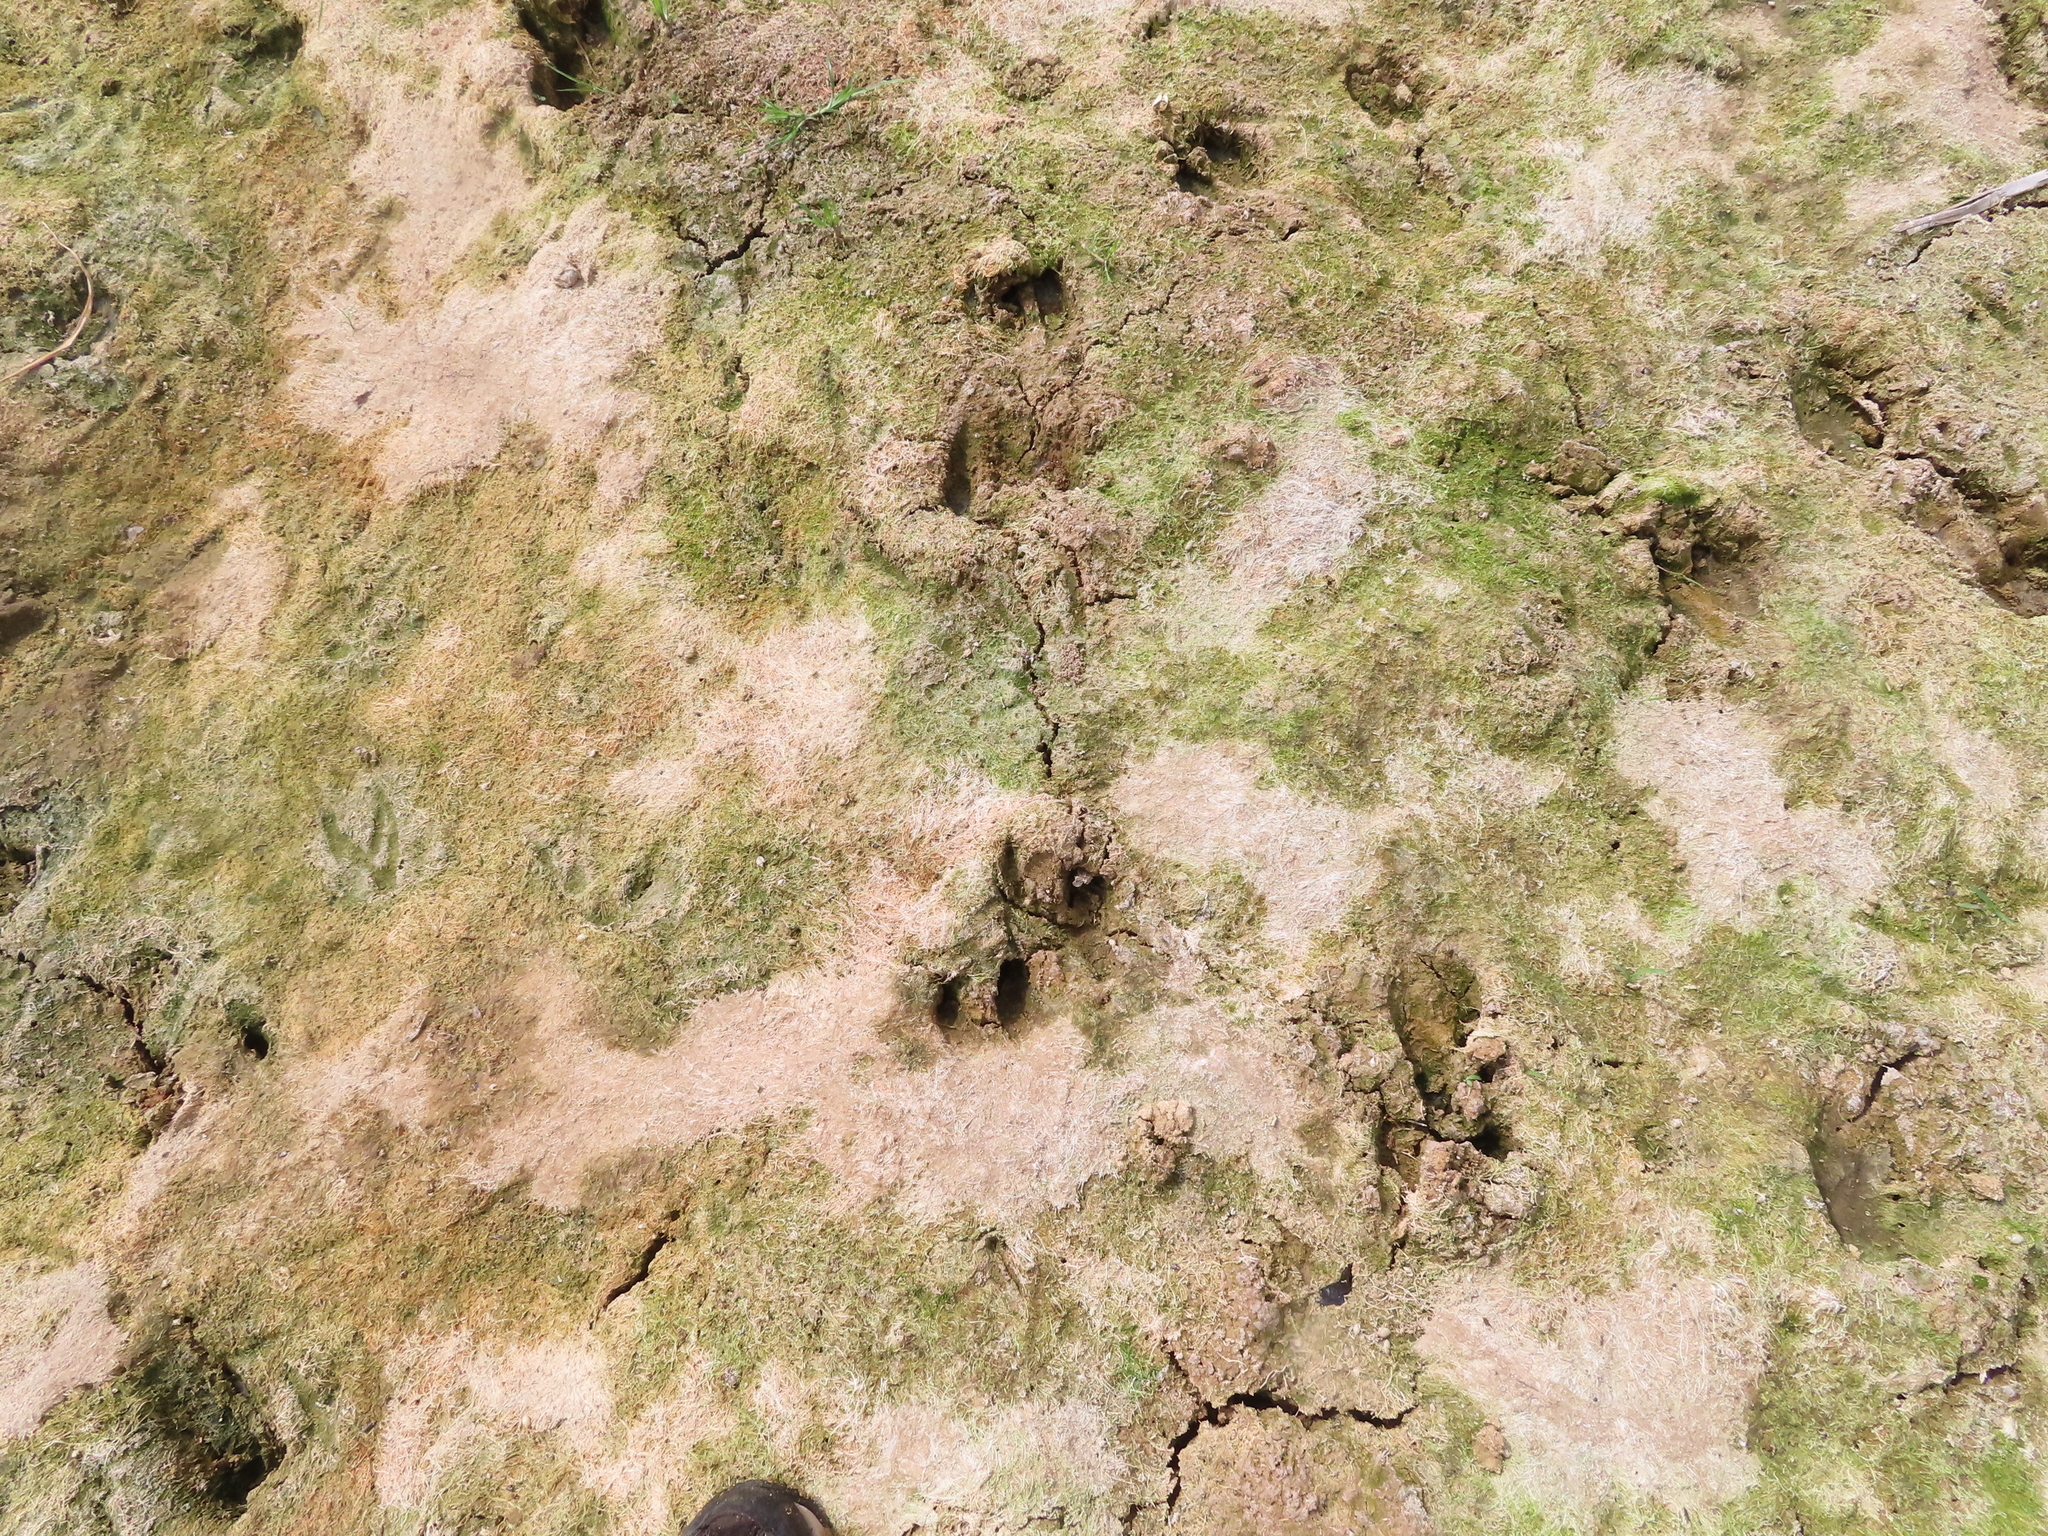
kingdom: Animalia
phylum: Chordata
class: Mammalia
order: Artiodactyla
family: Cervidae
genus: Odocoileus
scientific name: Odocoileus virginianus
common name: White-tailed deer
